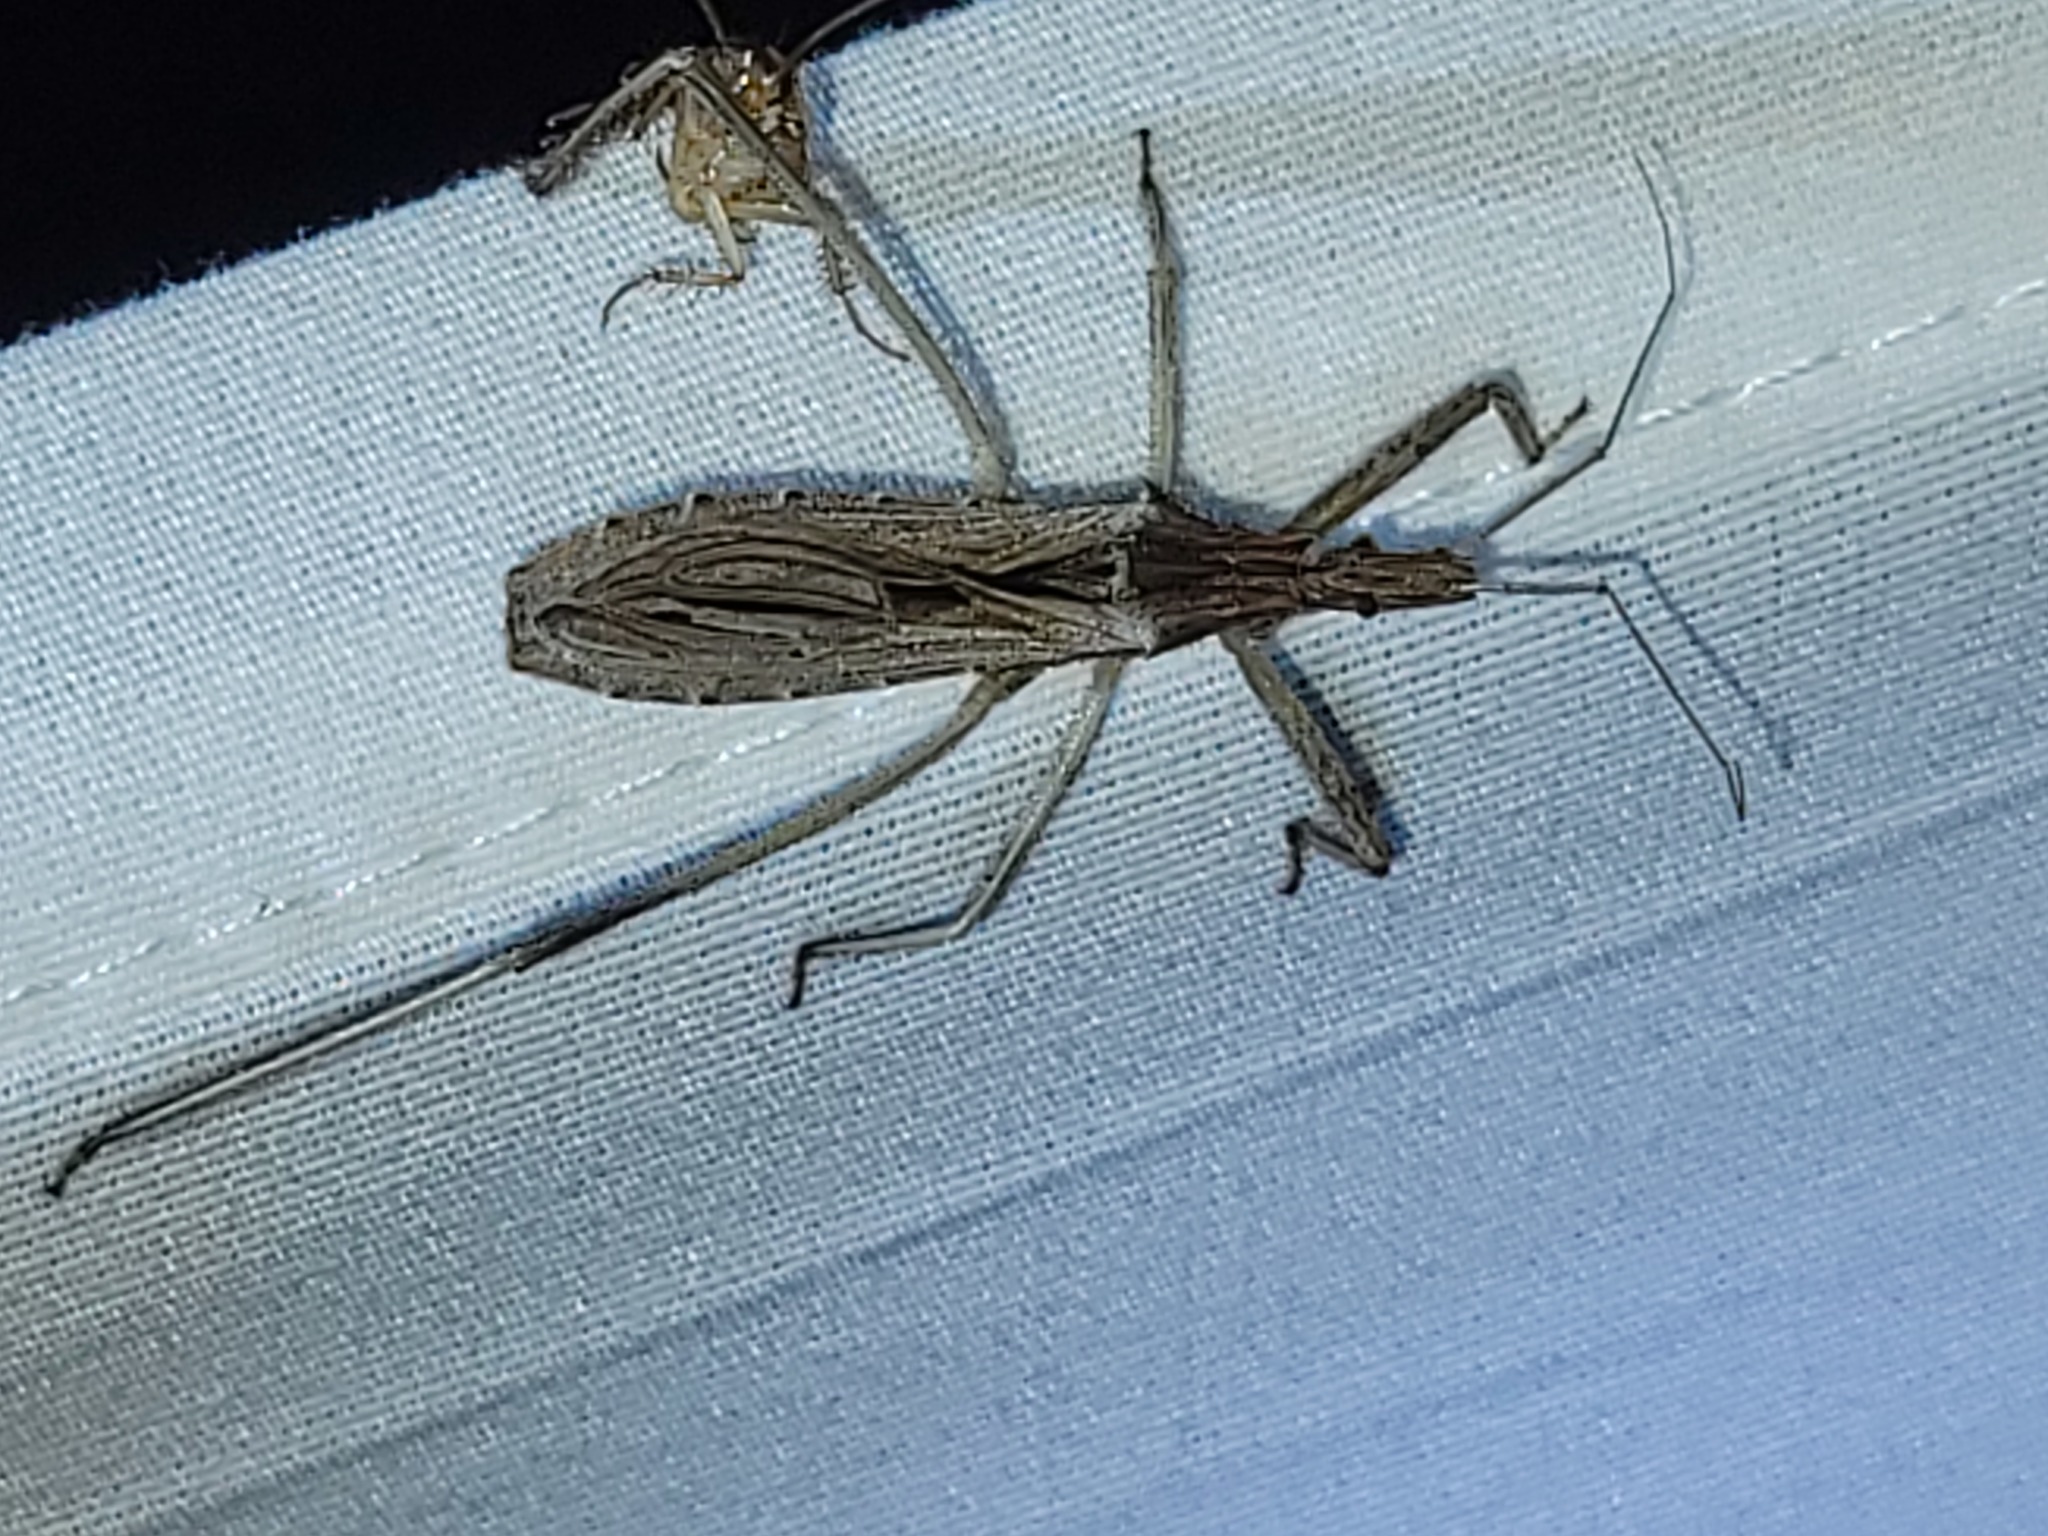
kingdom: Animalia
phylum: Arthropoda
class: Insecta
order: Hemiptera
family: Reduviidae
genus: Stenopoda
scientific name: Stenopoda spinulosa
